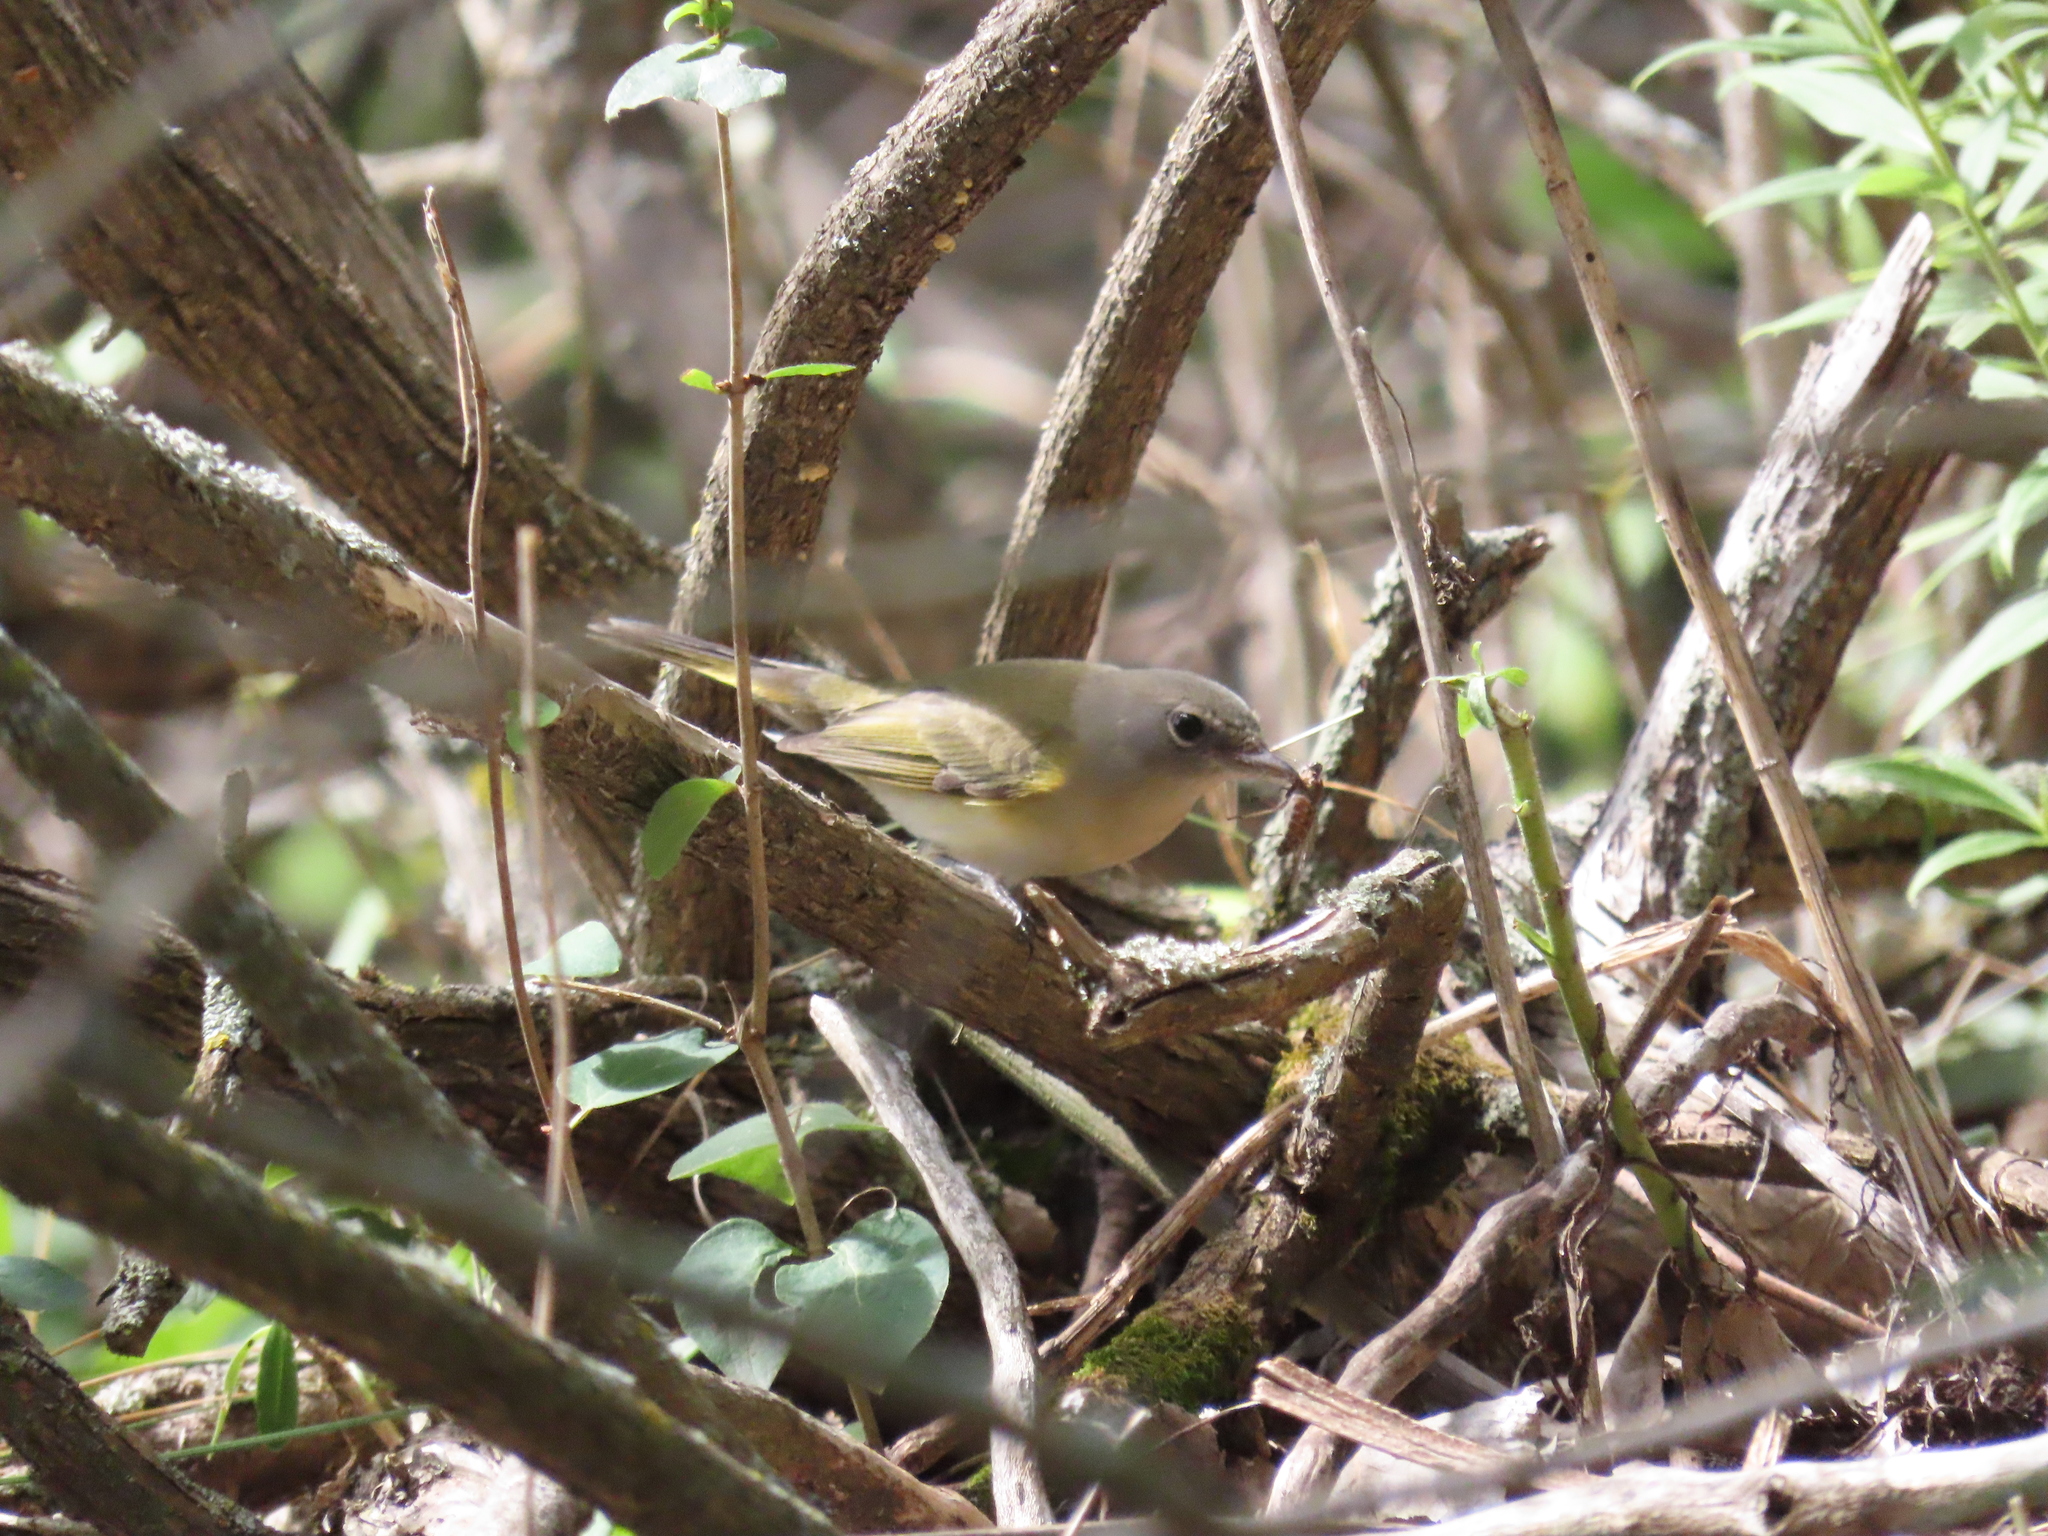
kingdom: Animalia
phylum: Chordata
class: Aves
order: Passeriformes
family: Parulidae
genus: Setophaga
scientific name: Setophaga ruticilla
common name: American redstart
